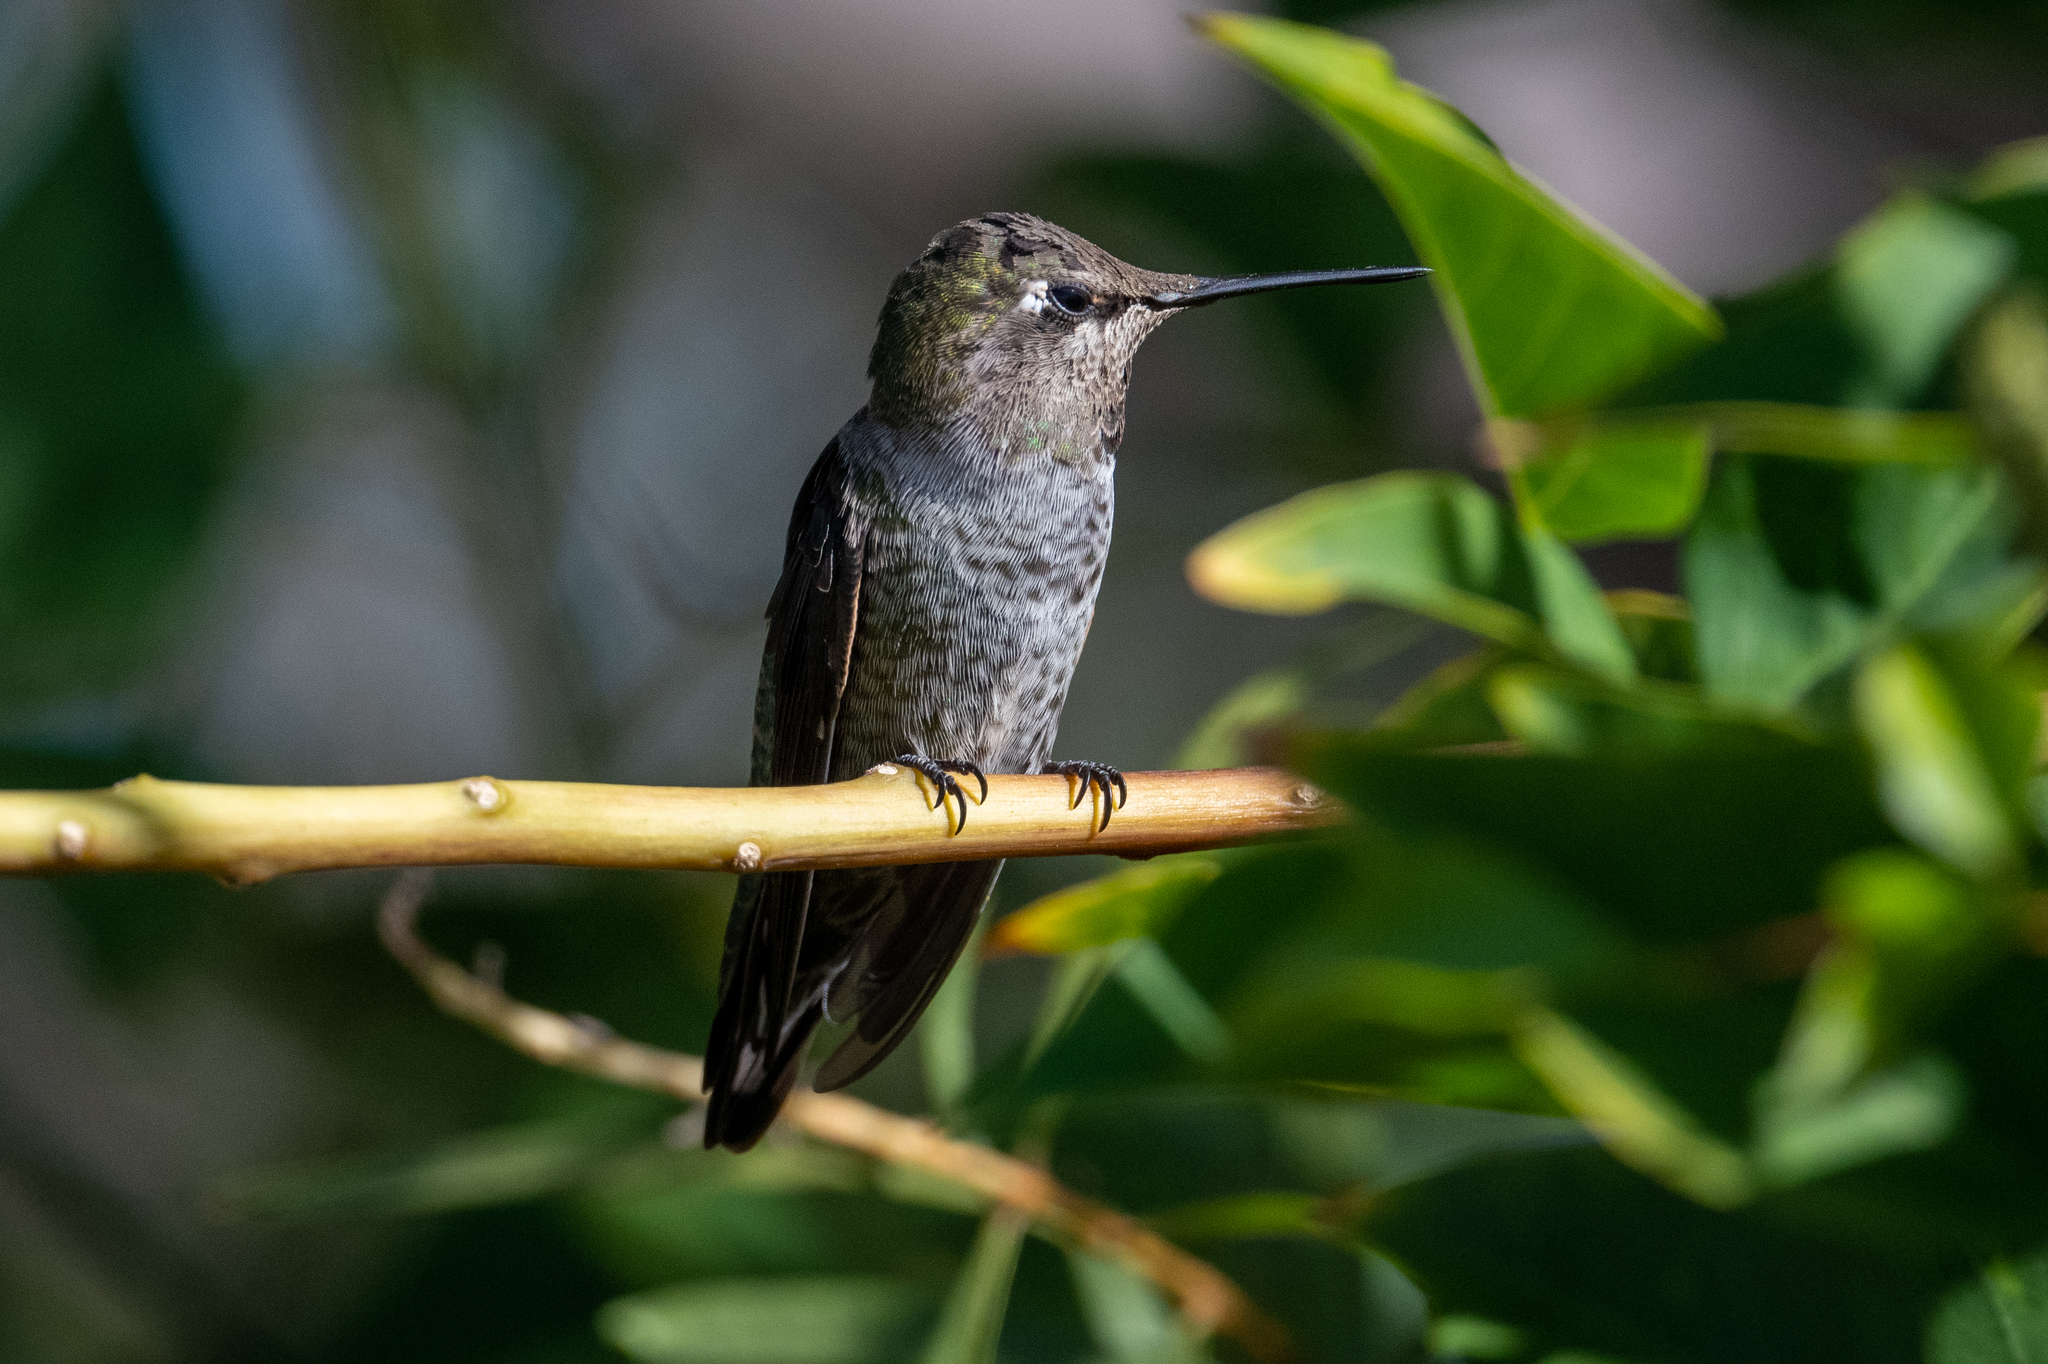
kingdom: Animalia
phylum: Chordata
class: Aves
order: Apodiformes
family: Trochilidae
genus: Calypte
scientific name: Calypte anna
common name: Anna's hummingbird
